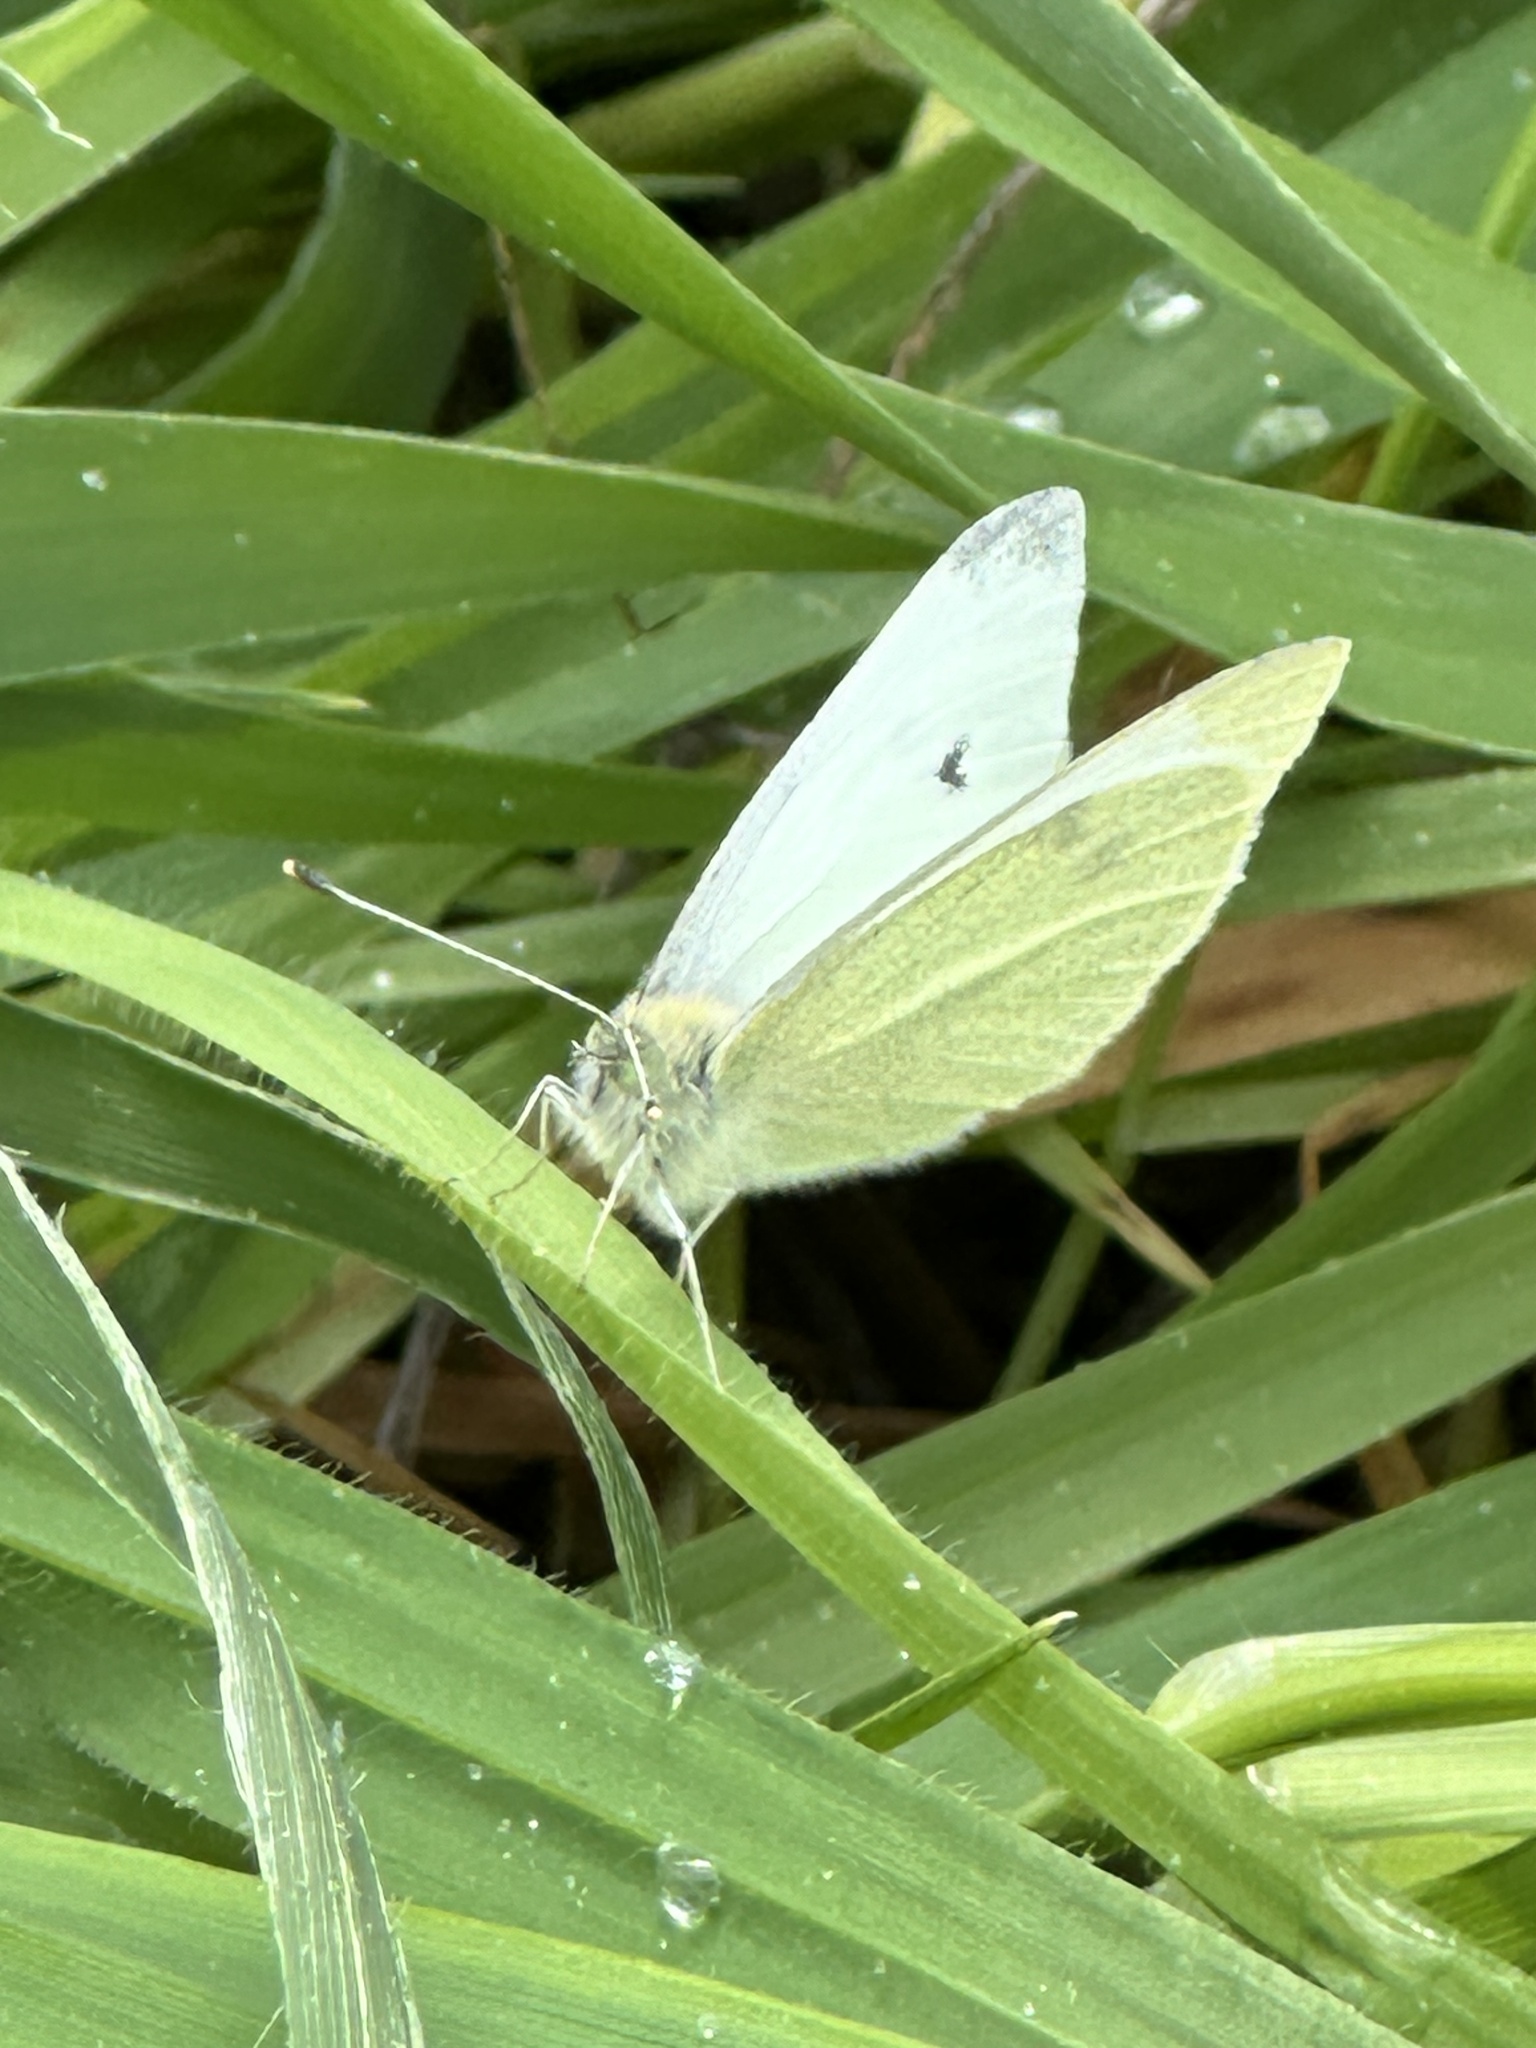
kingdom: Animalia
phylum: Arthropoda
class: Insecta
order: Lepidoptera
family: Pieridae
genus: Pieris
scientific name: Pieris rapae
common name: Small white
